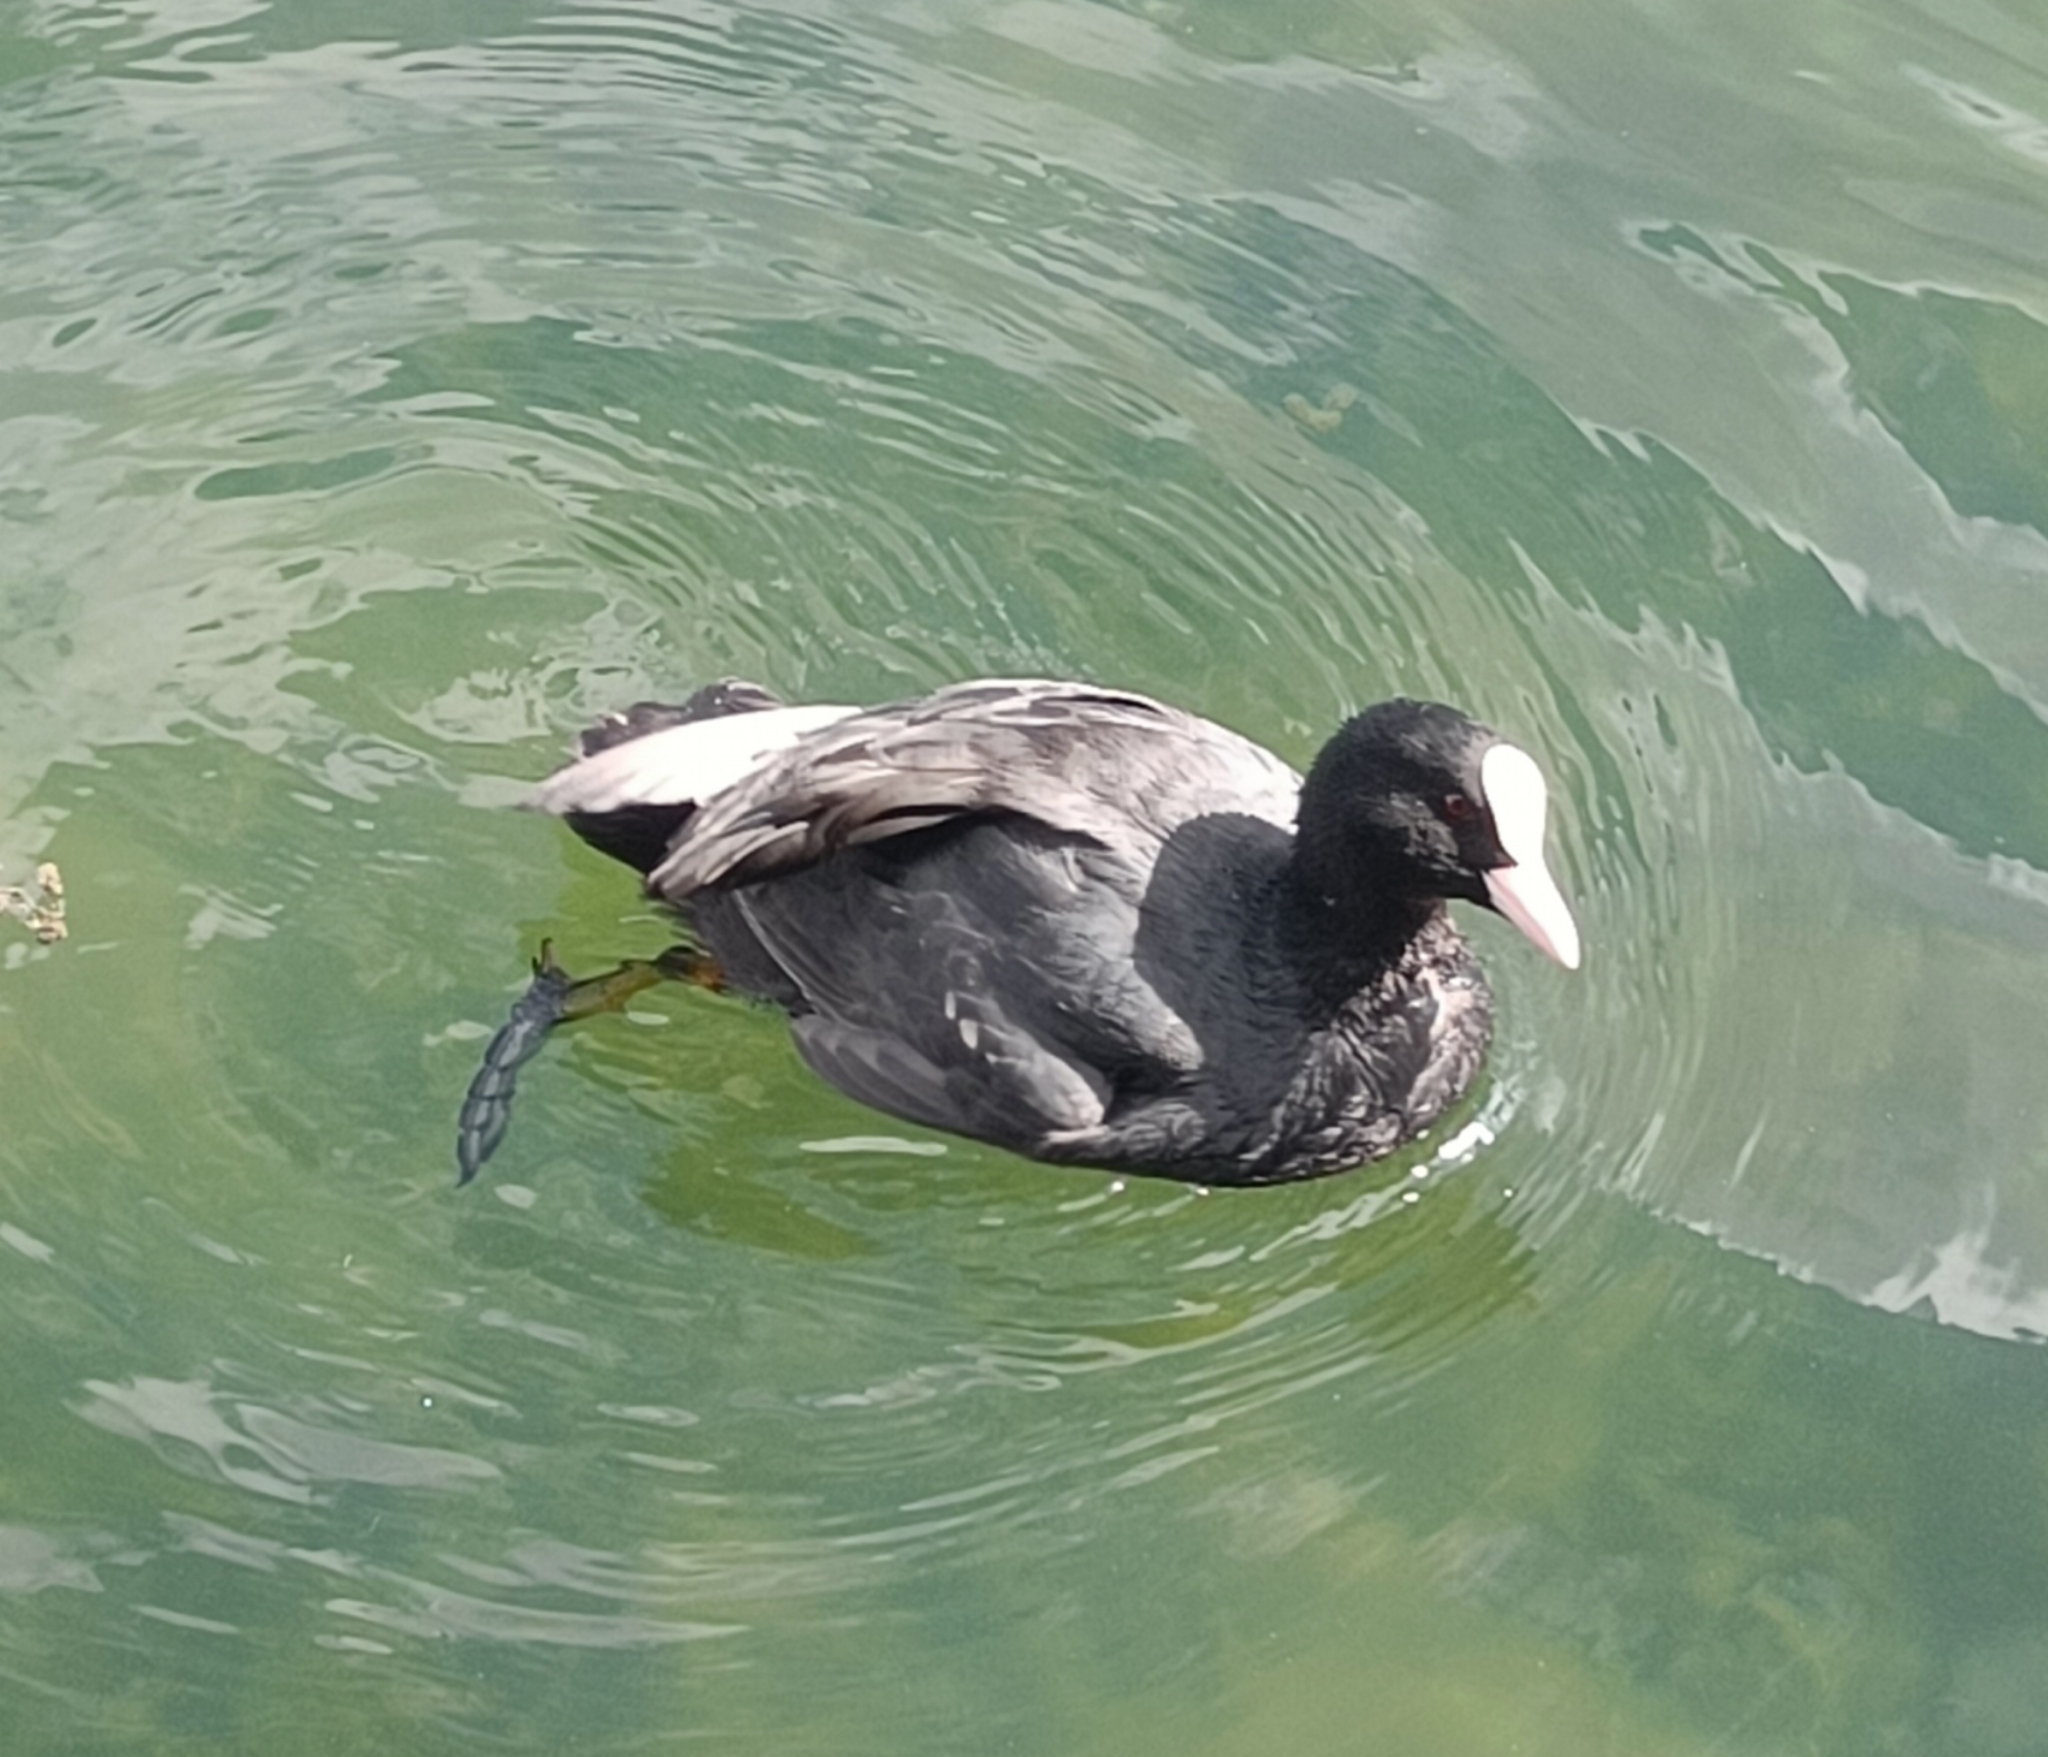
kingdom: Animalia
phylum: Chordata
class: Aves
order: Gruiformes
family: Rallidae
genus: Fulica
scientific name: Fulica atra
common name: Eurasian coot
